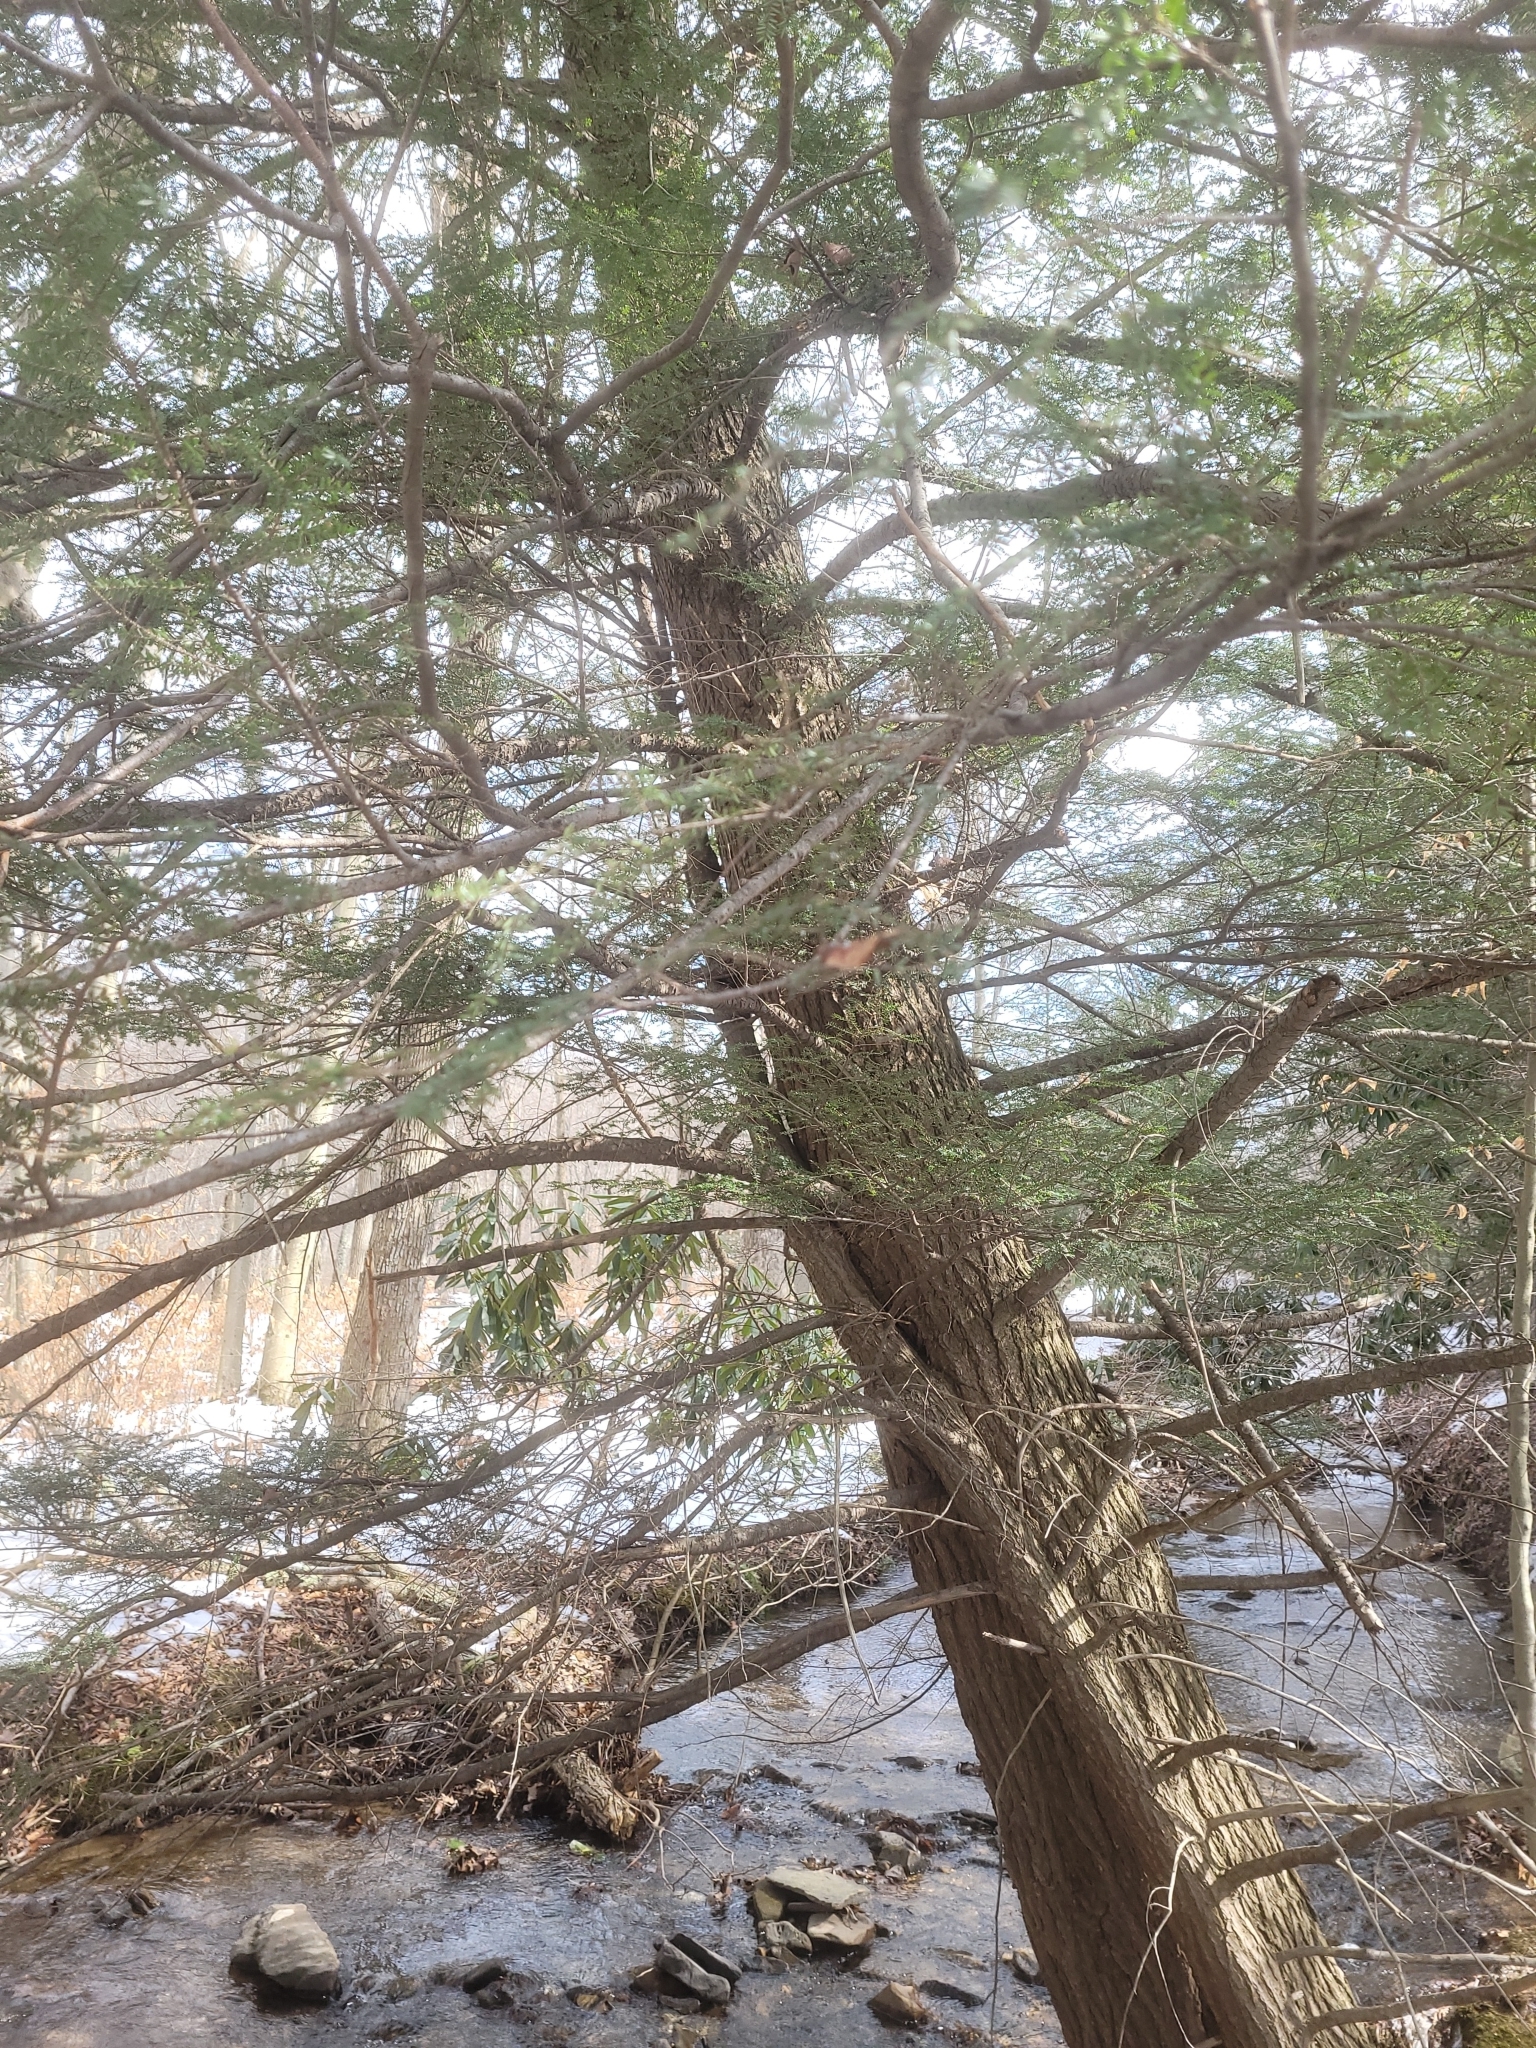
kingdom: Plantae
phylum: Tracheophyta
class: Pinopsida
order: Pinales
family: Pinaceae
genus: Tsuga
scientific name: Tsuga canadensis
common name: Eastern hemlock
